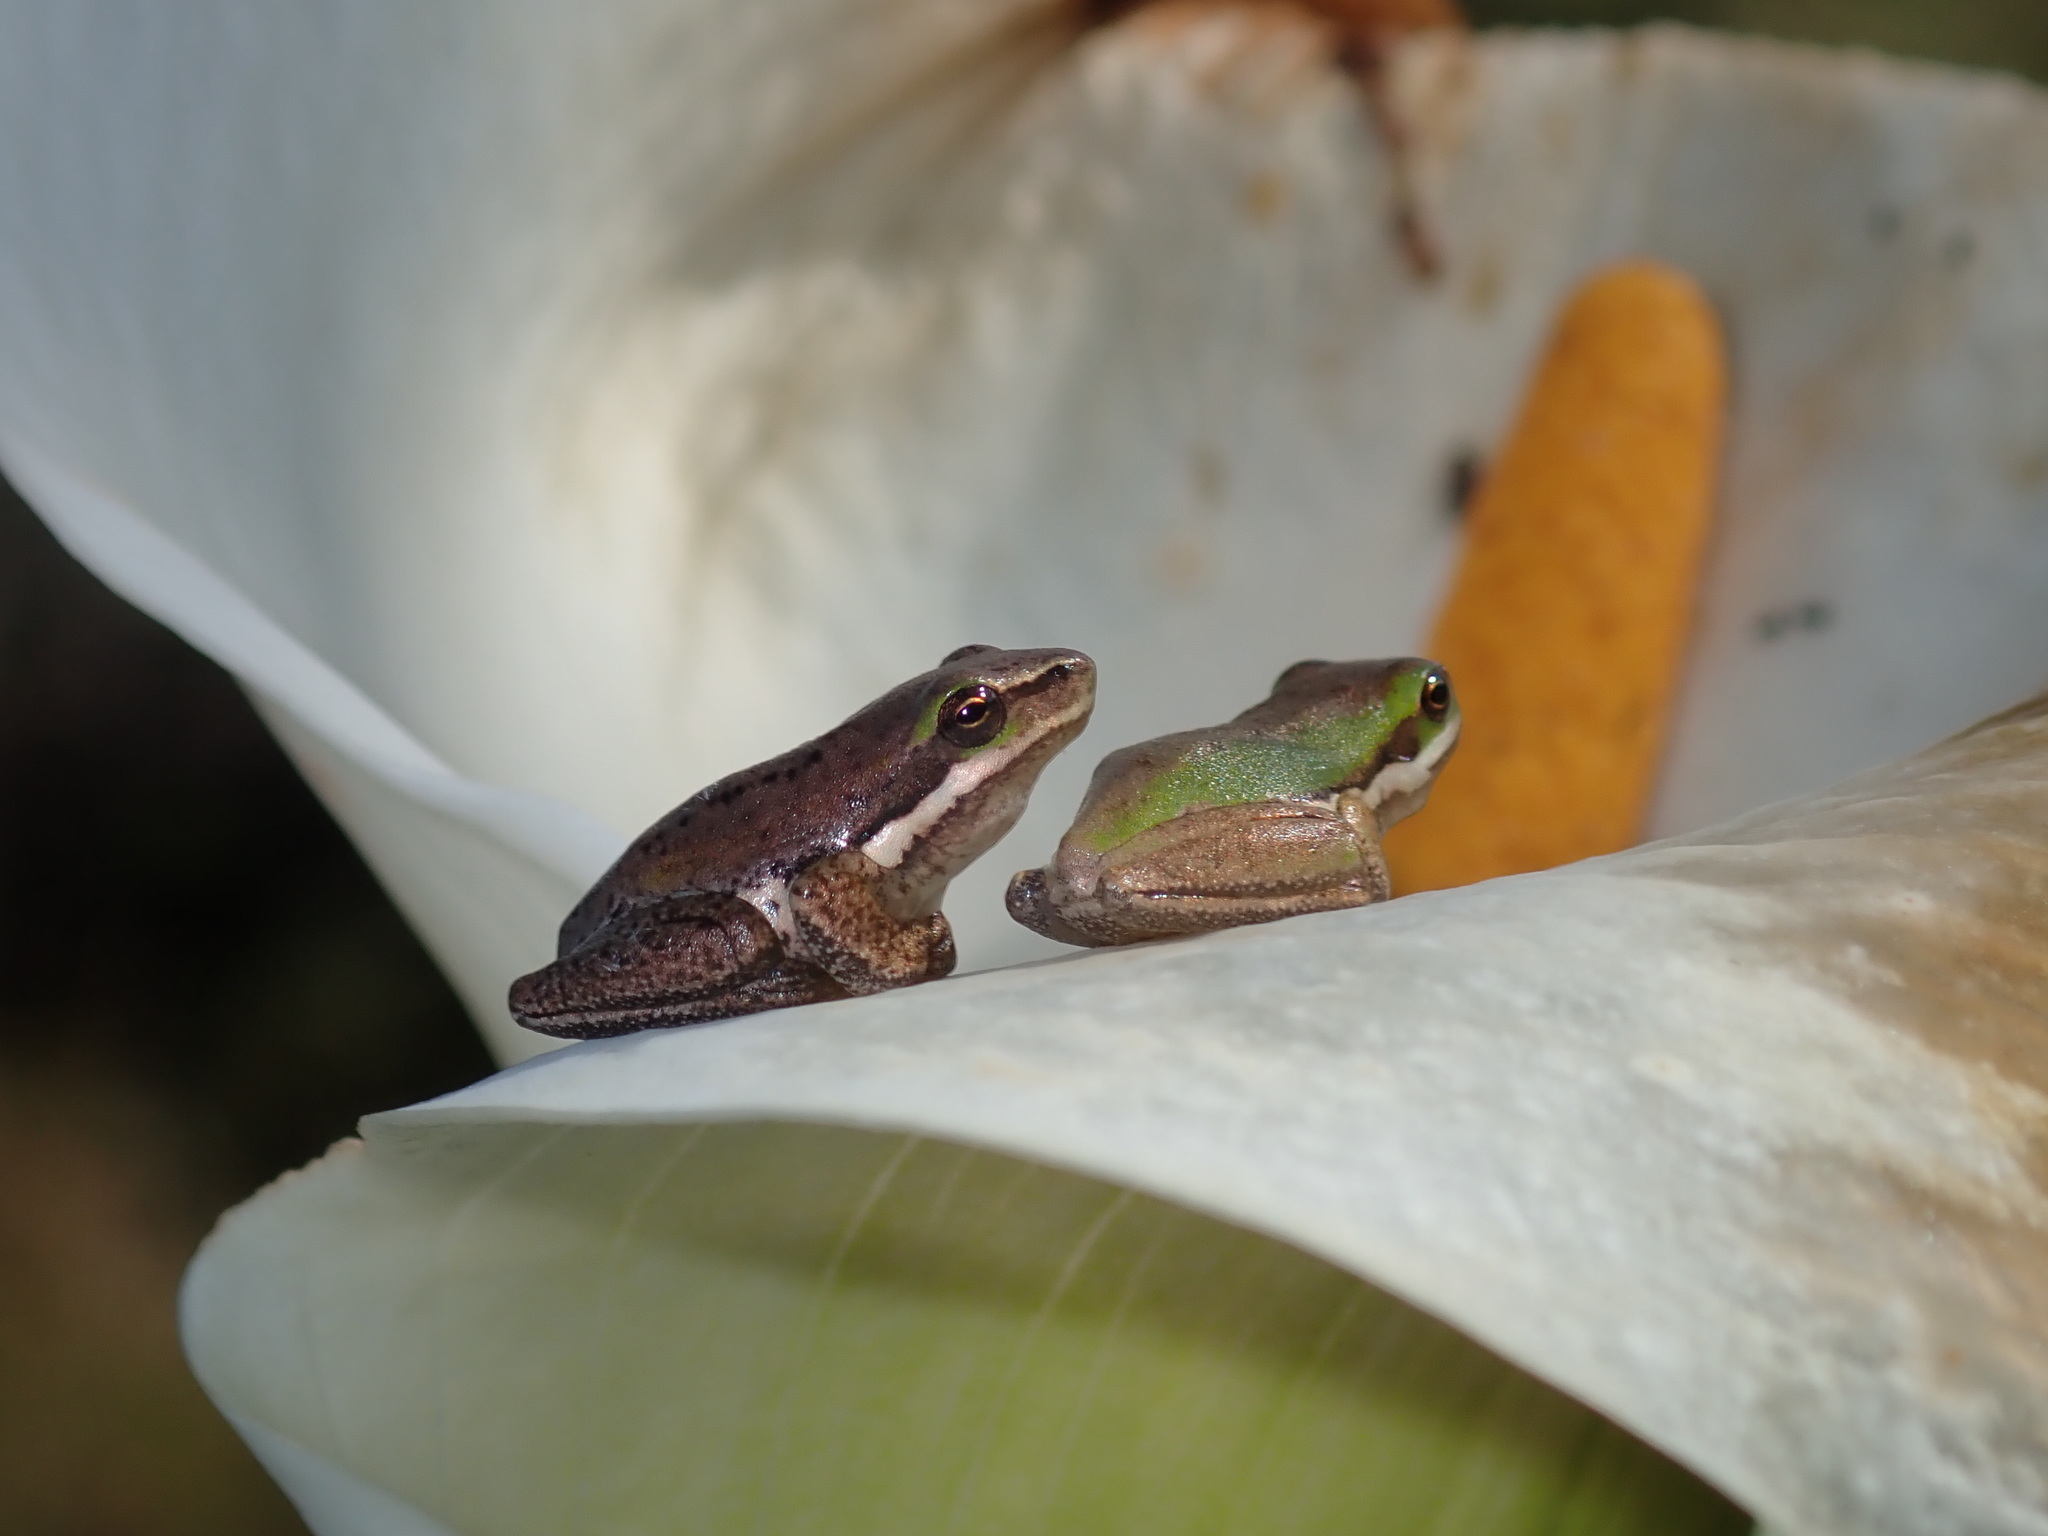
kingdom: Animalia
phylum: Chordata
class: Amphibia
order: Anura
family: Pelodryadidae
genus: Litoria
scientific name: Litoria fallax
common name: Eastern dwarf treefrog
